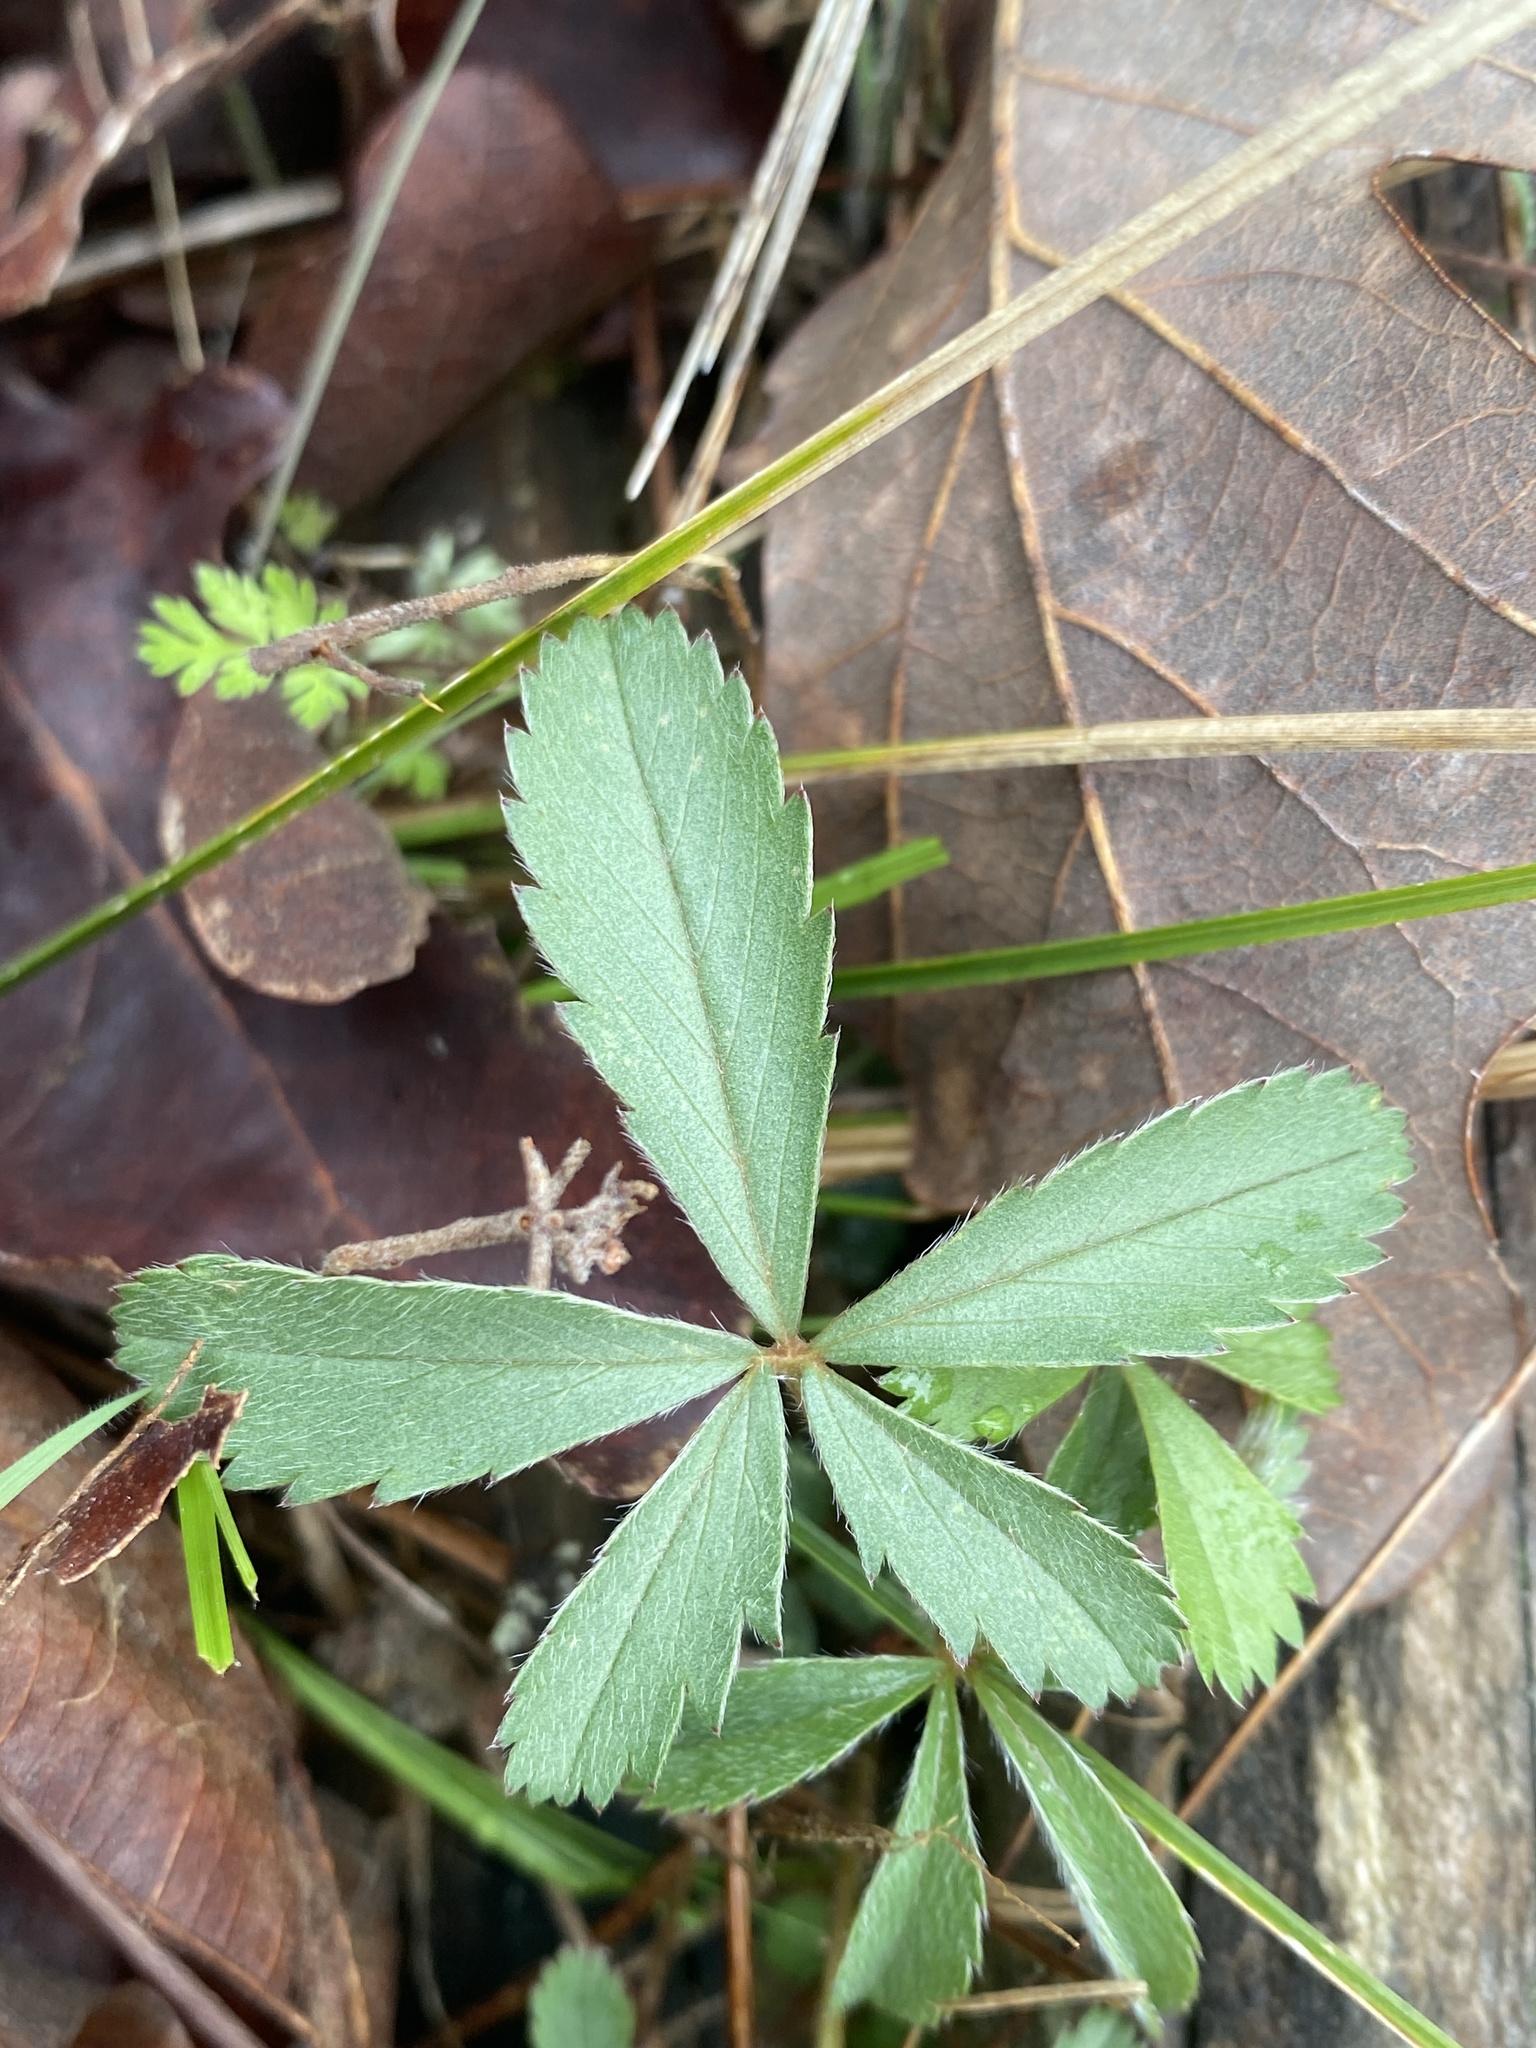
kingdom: Plantae
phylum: Tracheophyta
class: Magnoliopsida
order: Rosales
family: Rosaceae
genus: Potentilla
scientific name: Potentilla simplex
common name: Old field cinquefoil
